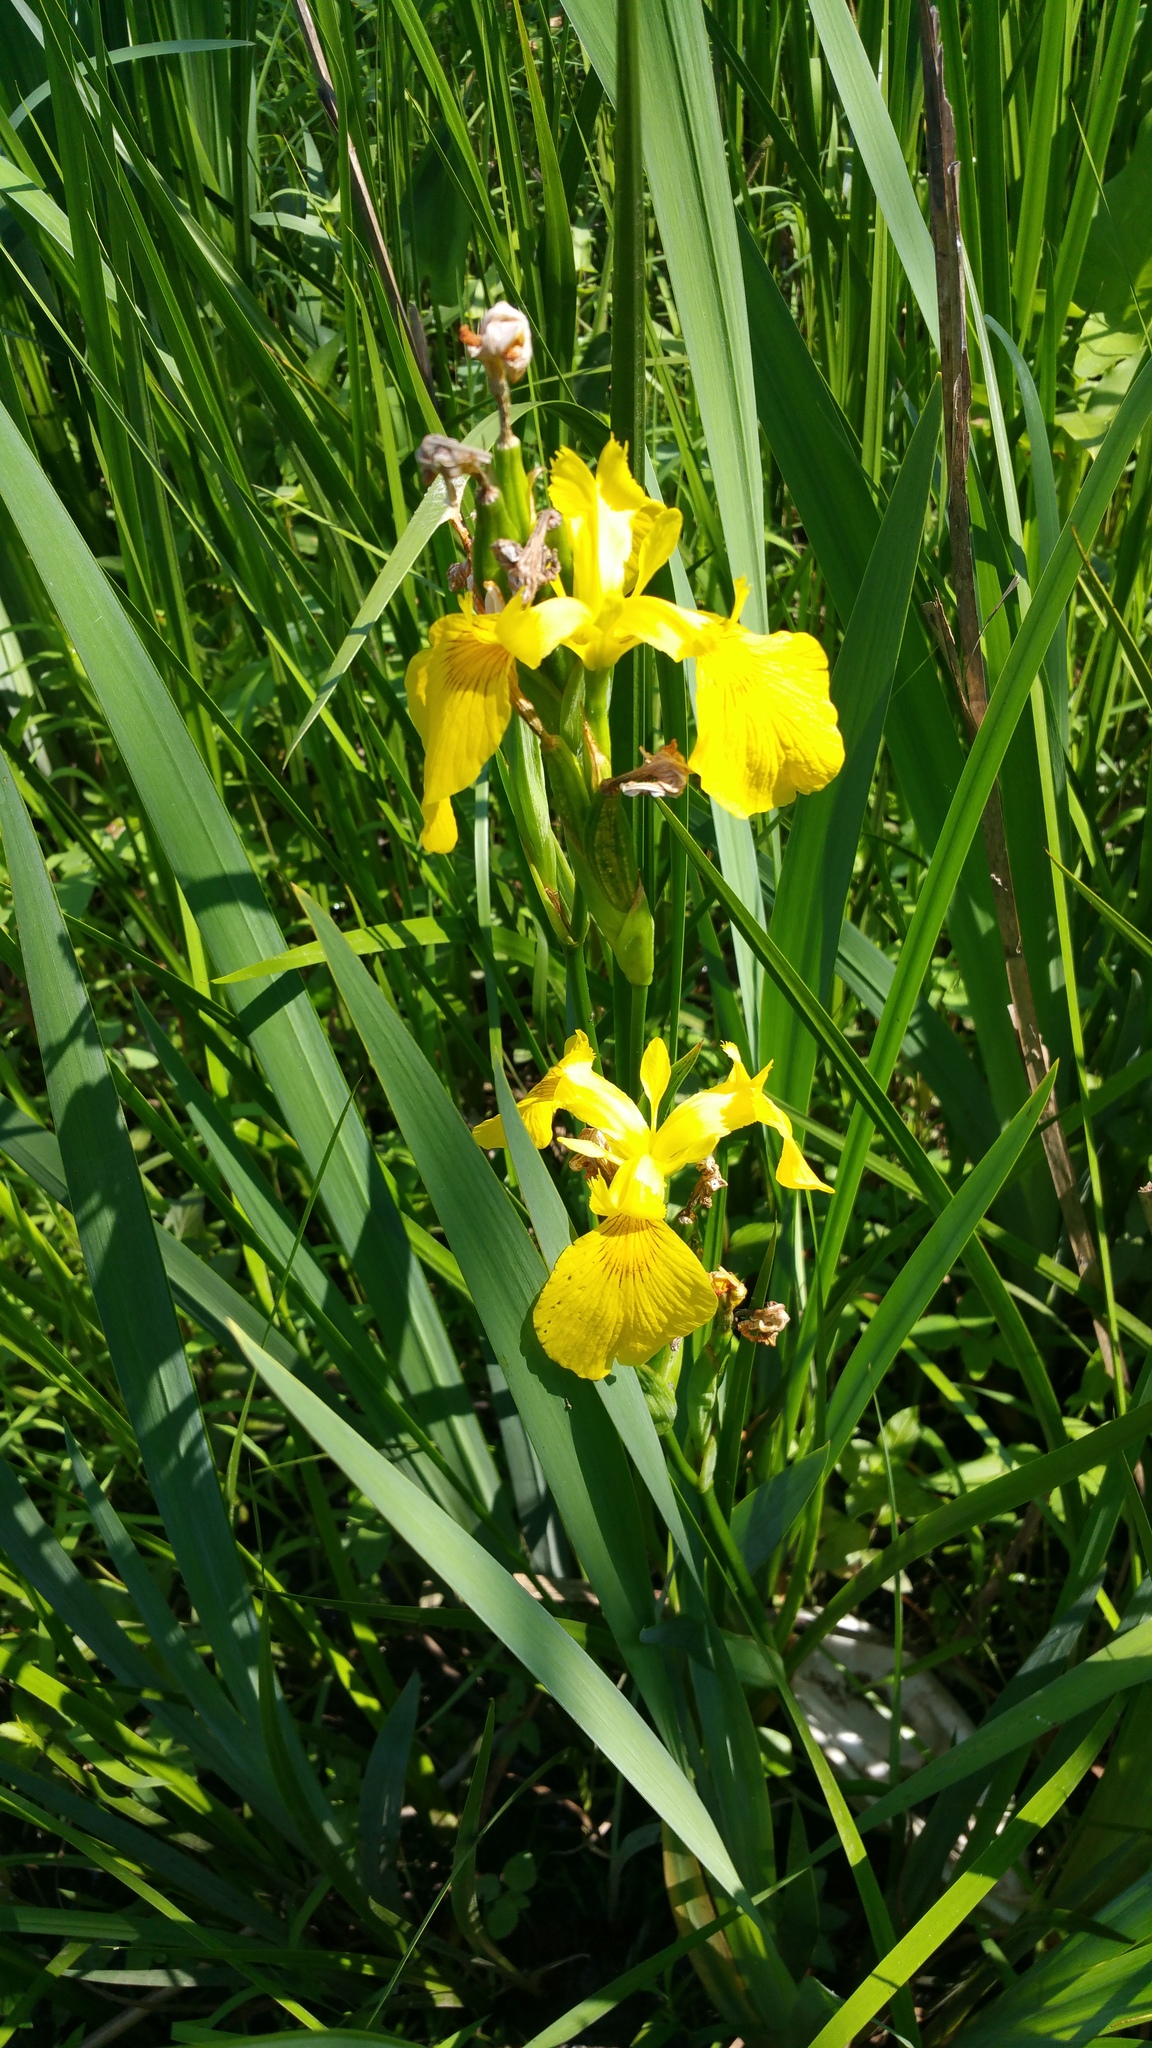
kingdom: Plantae
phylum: Tracheophyta
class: Liliopsida
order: Asparagales
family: Iridaceae
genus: Iris
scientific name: Iris pseudacorus
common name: Yellow flag
